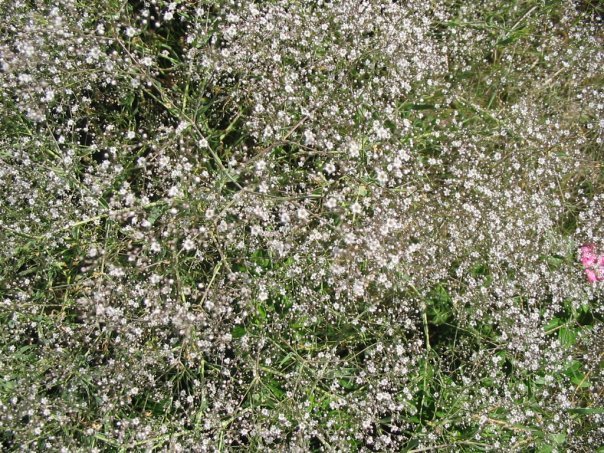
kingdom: Plantae
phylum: Tracheophyta
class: Magnoliopsida
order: Caryophyllales
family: Caryophyllaceae
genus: Gypsophila
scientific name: Gypsophila paniculata
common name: Baby's-breath
